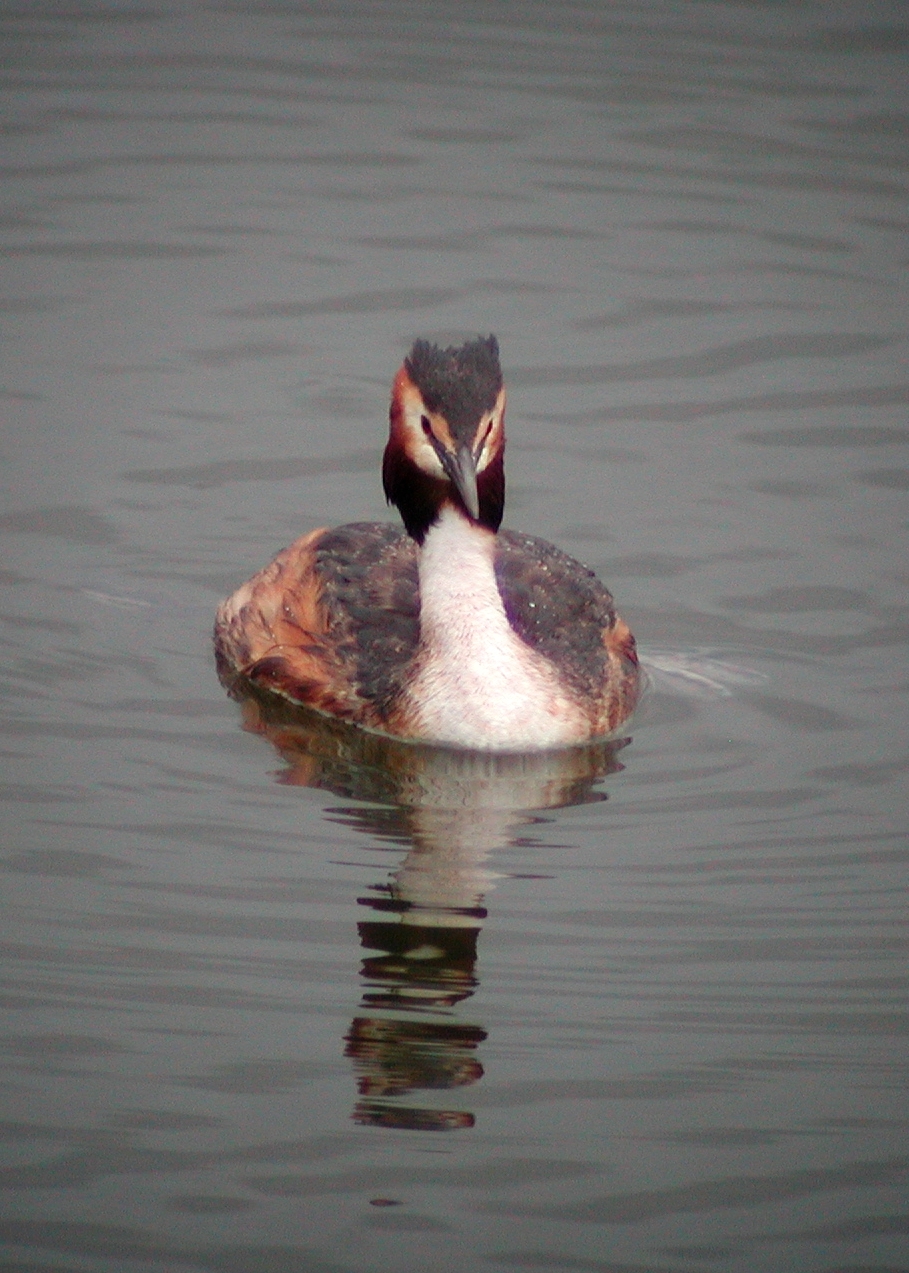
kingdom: Animalia
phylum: Chordata
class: Aves
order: Podicipediformes
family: Podicipedidae
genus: Podiceps
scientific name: Podiceps cristatus
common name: Great crested grebe
